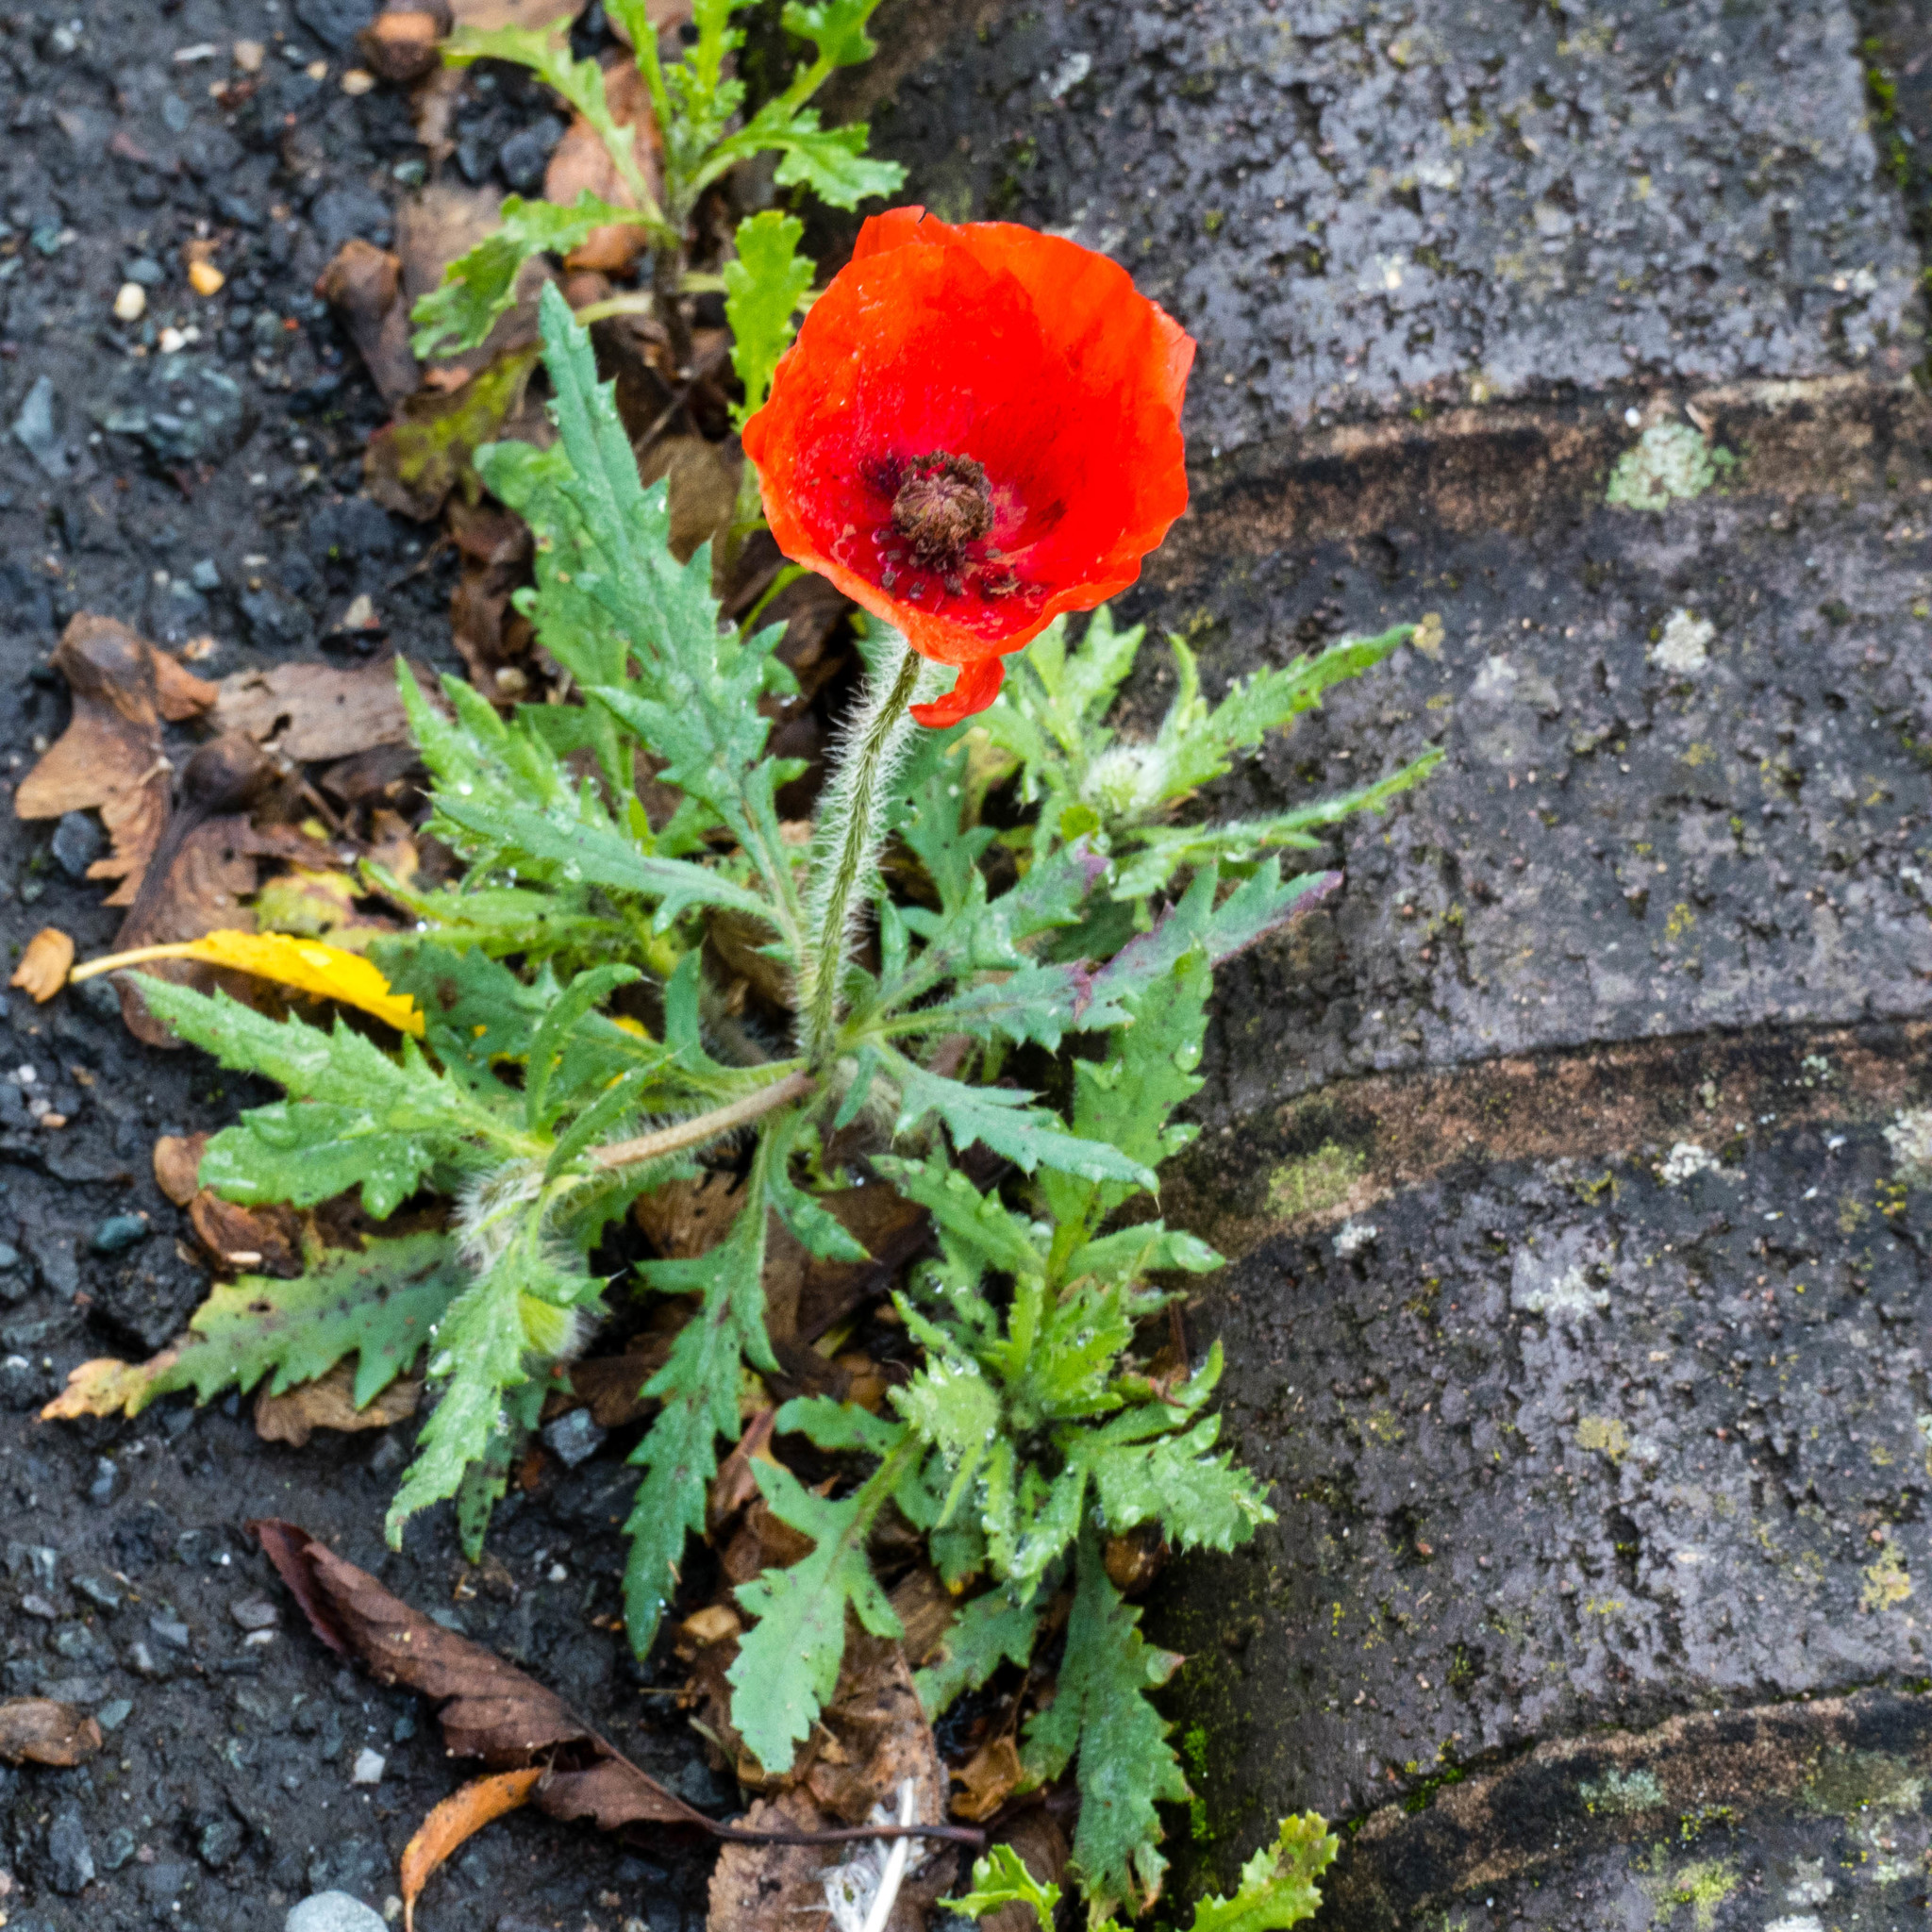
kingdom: Plantae
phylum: Tracheophyta
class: Magnoliopsida
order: Ranunculales
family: Papaveraceae
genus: Papaver
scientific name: Papaver rhoeas
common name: Corn poppy
